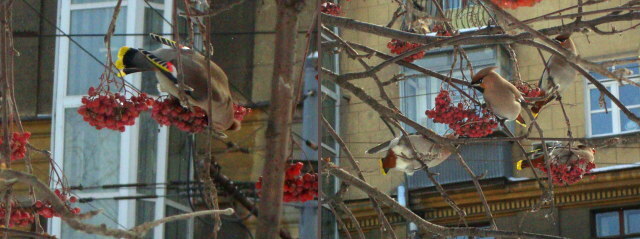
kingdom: Animalia
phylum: Chordata
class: Aves
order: Passeriformes
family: Bombycillidae
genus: Bombycilla
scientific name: Bombycilla garrulus
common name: Bohemian waxwing
